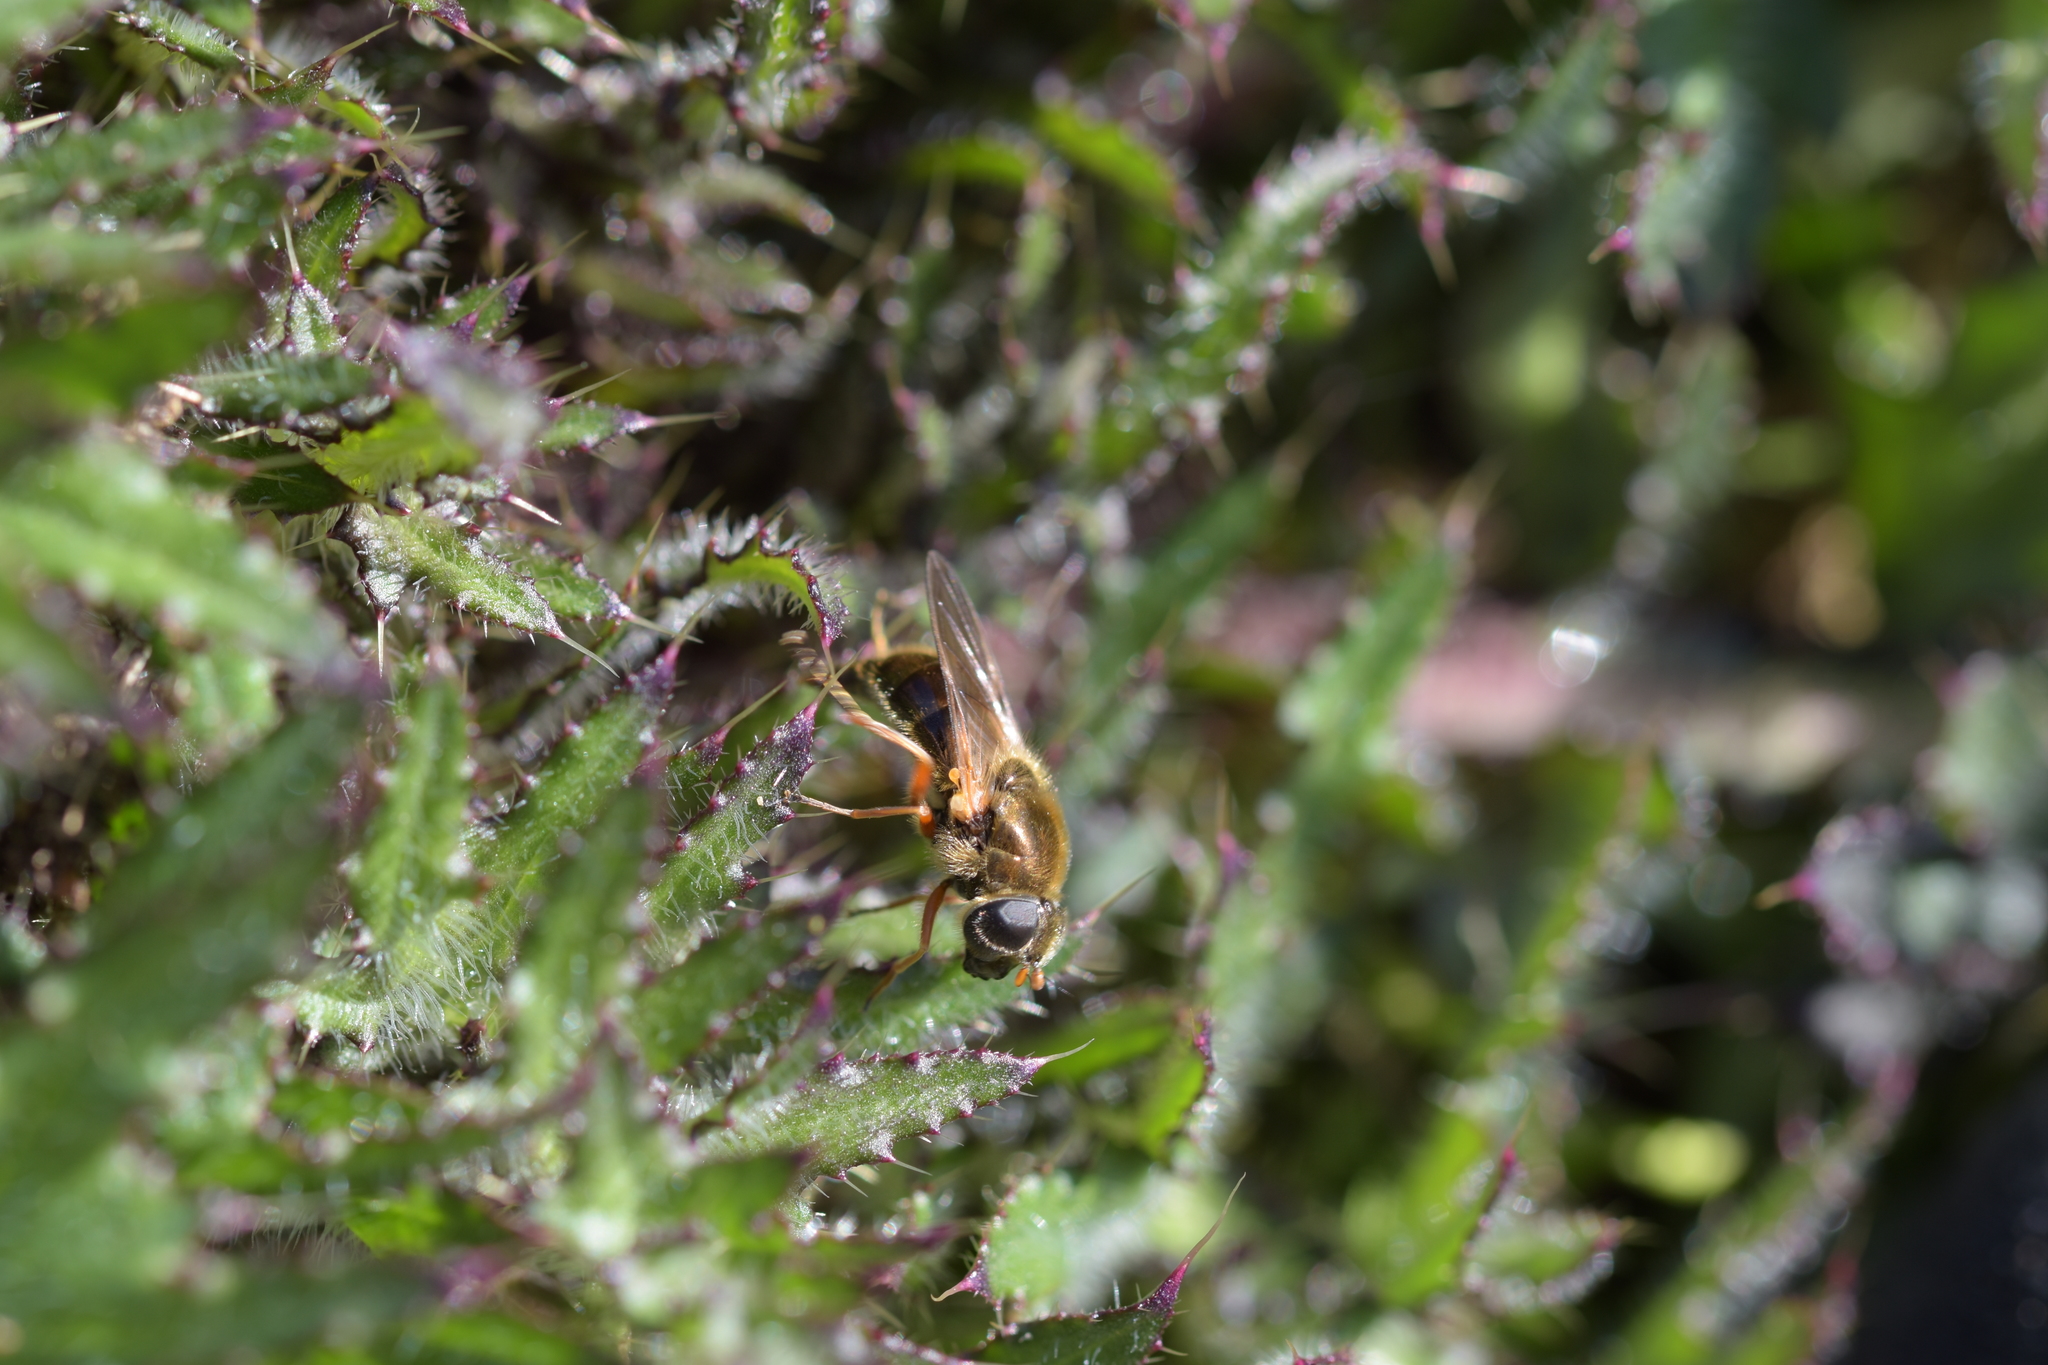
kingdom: Animalia
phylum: Arthropoda
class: Insecta
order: Diptera
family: Syrphidae
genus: Cheilosia
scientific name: Cheilosia albipila
